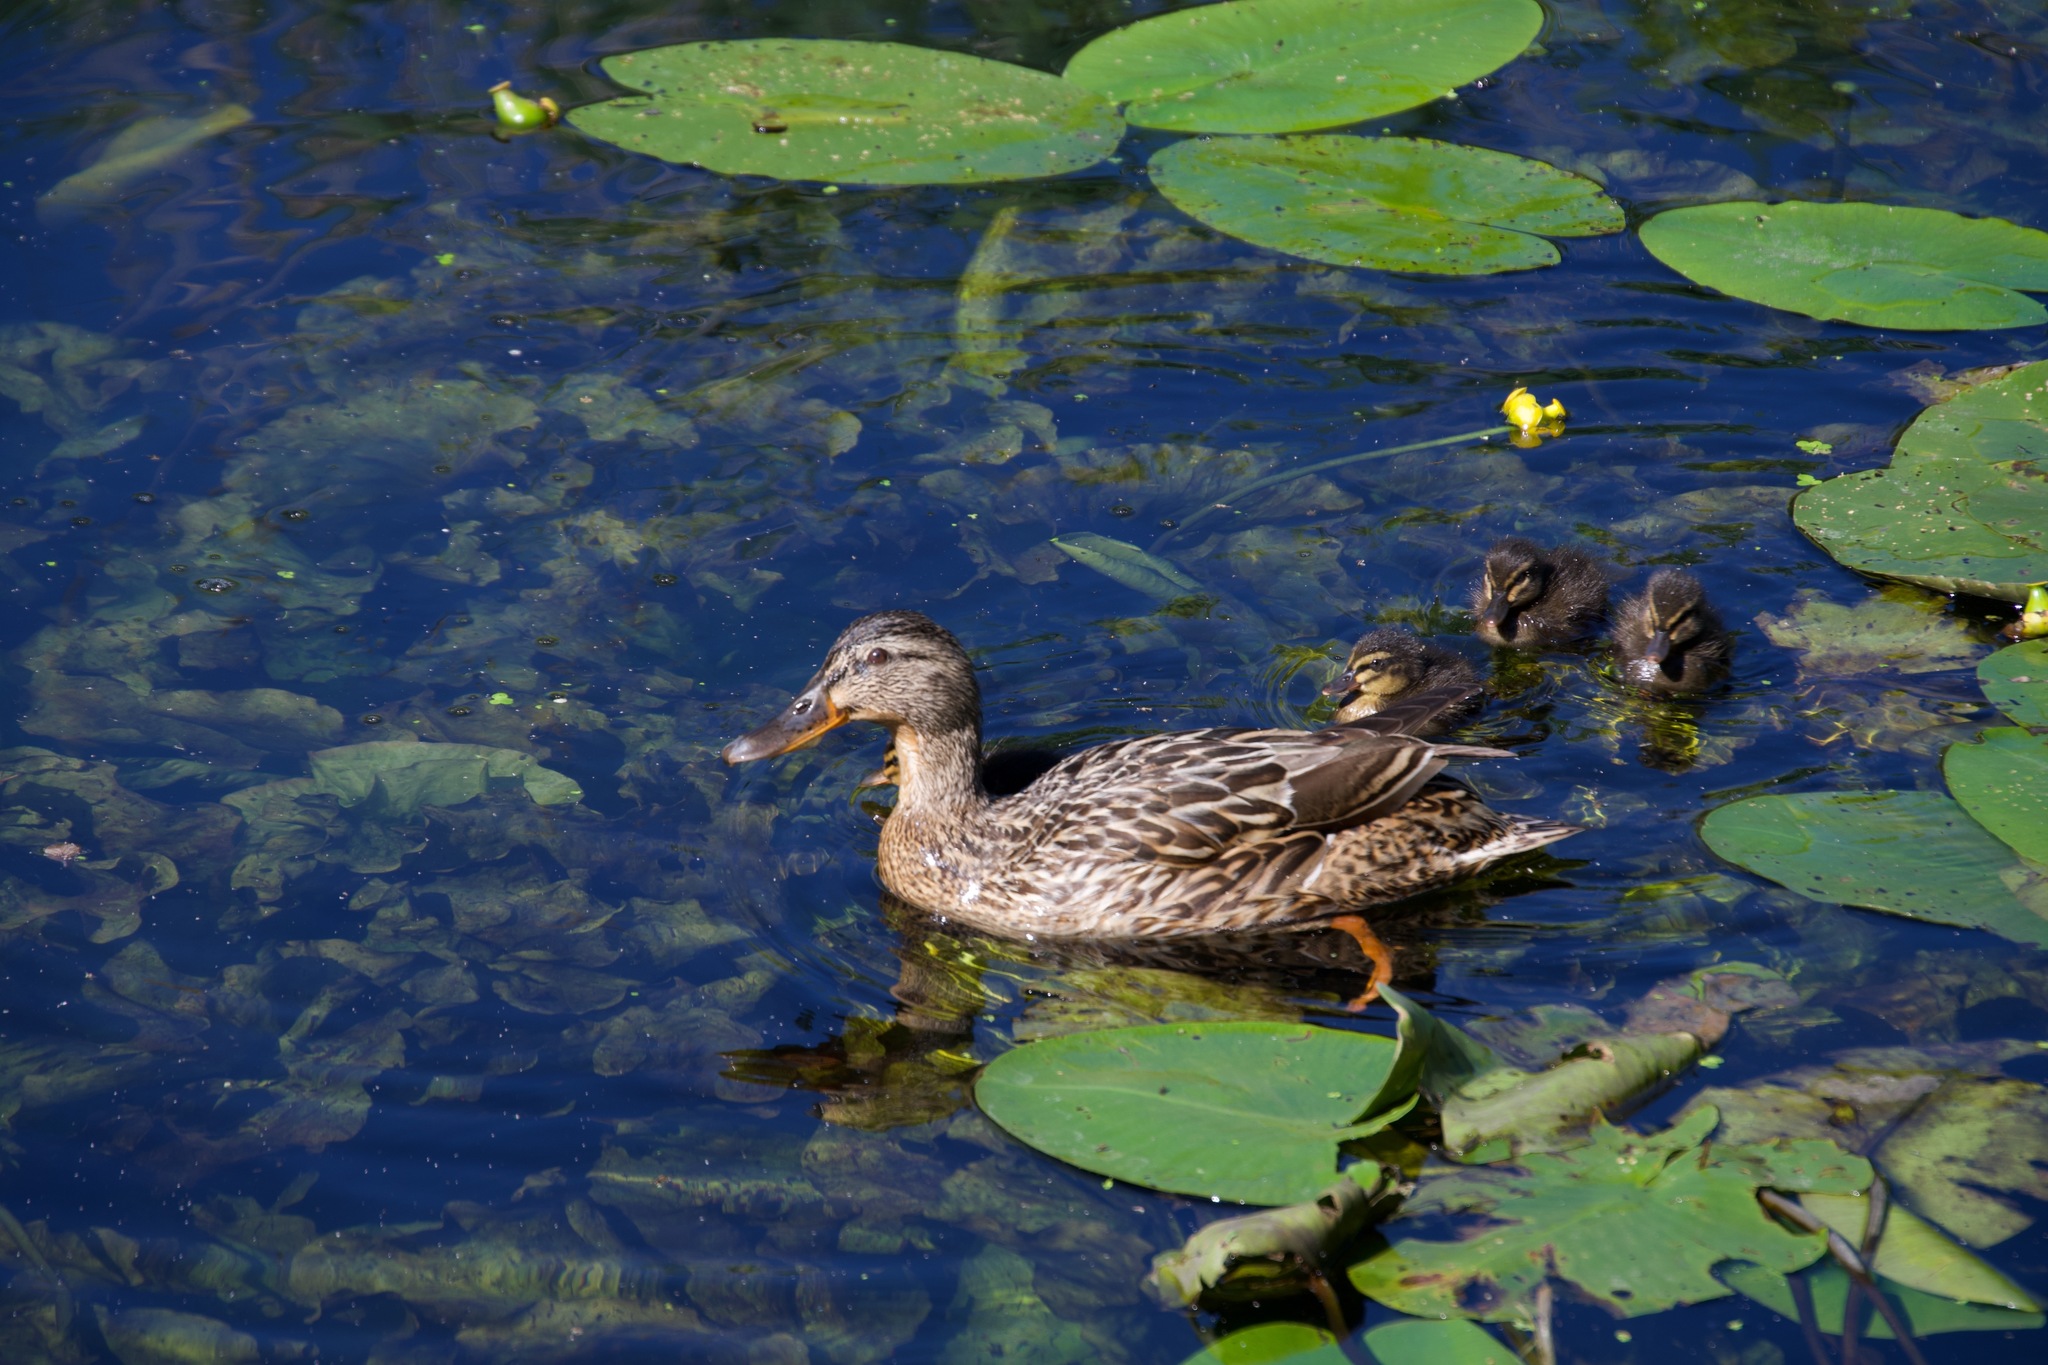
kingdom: Animalia
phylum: Chordata
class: Aves
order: Anseriformes
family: Anatidae
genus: Anas
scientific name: Anas platyrhynchos
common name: Mallard
